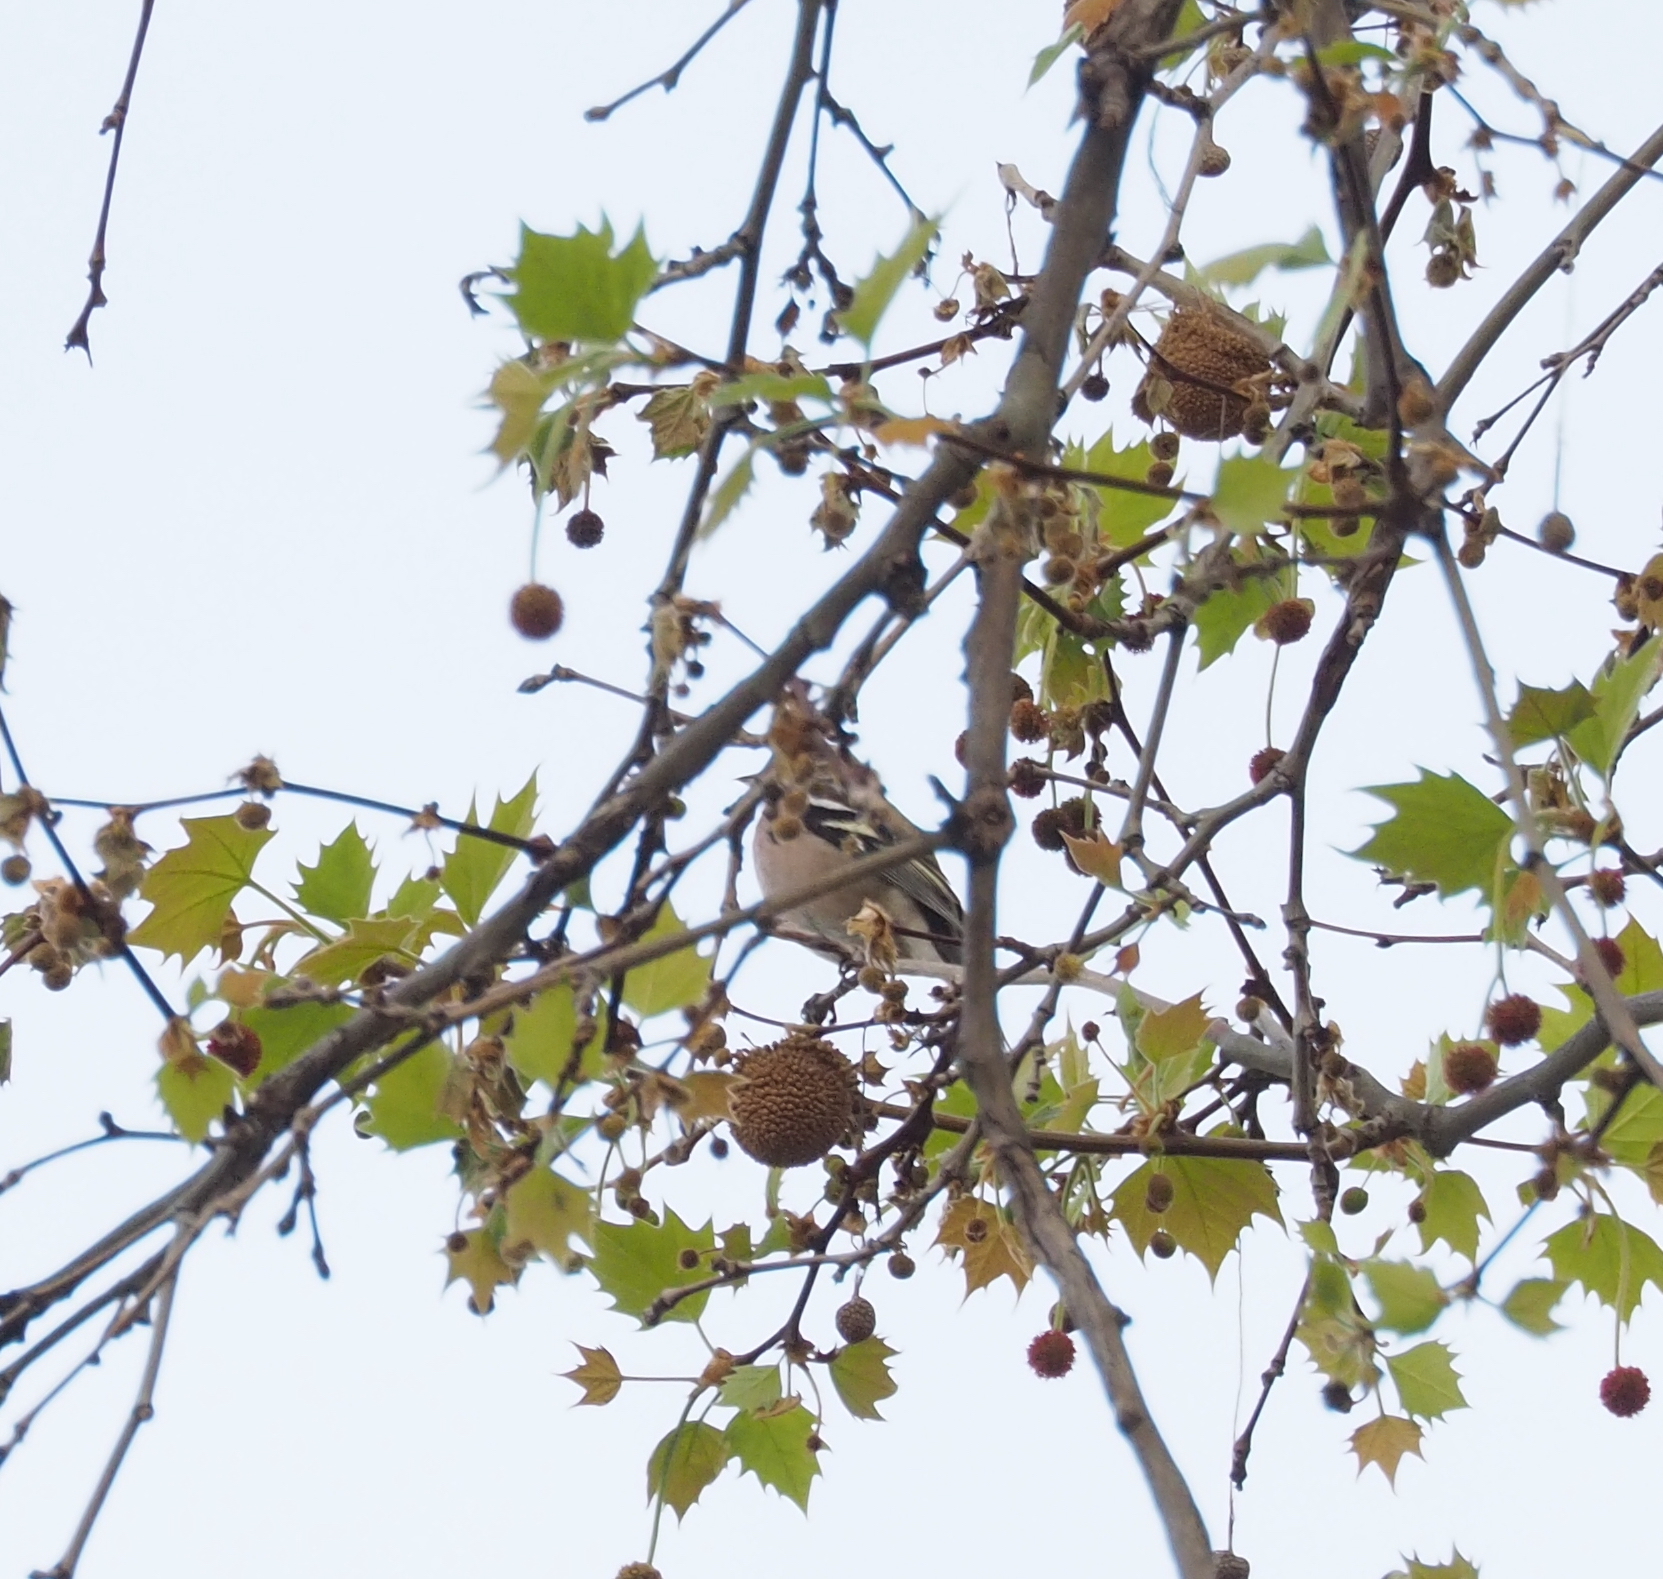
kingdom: Animalia
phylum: Chordata
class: Aves
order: Passeriformes
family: Fringillidae
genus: Fringilla
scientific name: Fringilla coelebs
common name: Common chaffinch
